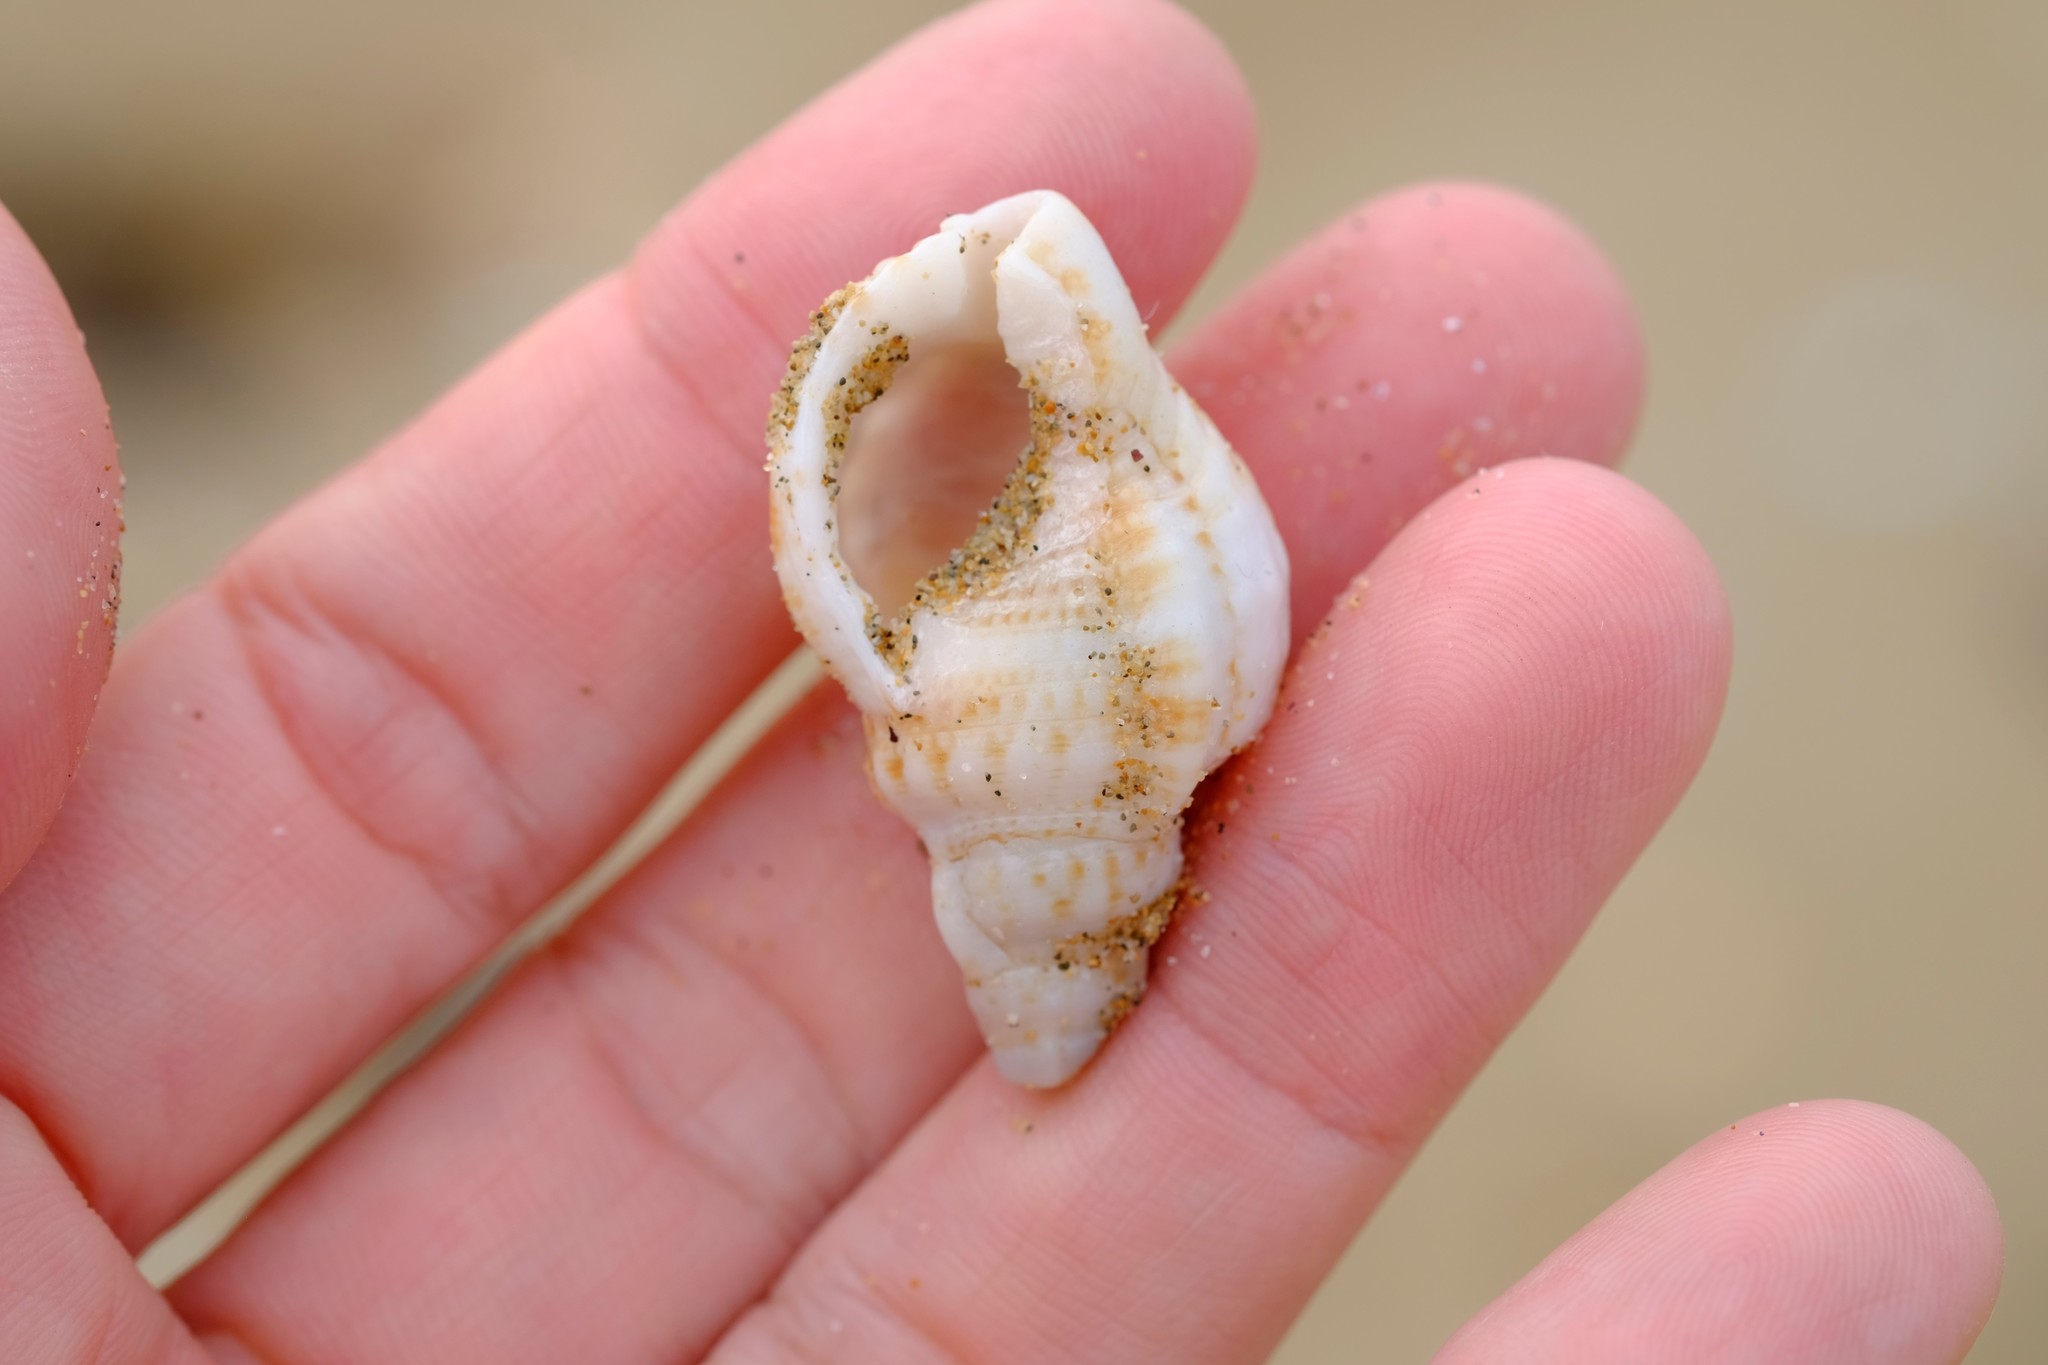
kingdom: Animalia
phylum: Mollusca
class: Gastropoda
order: Littorinimorpha
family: Cymatiidae
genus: Austrotriton
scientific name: Austrotriton subdistortus
